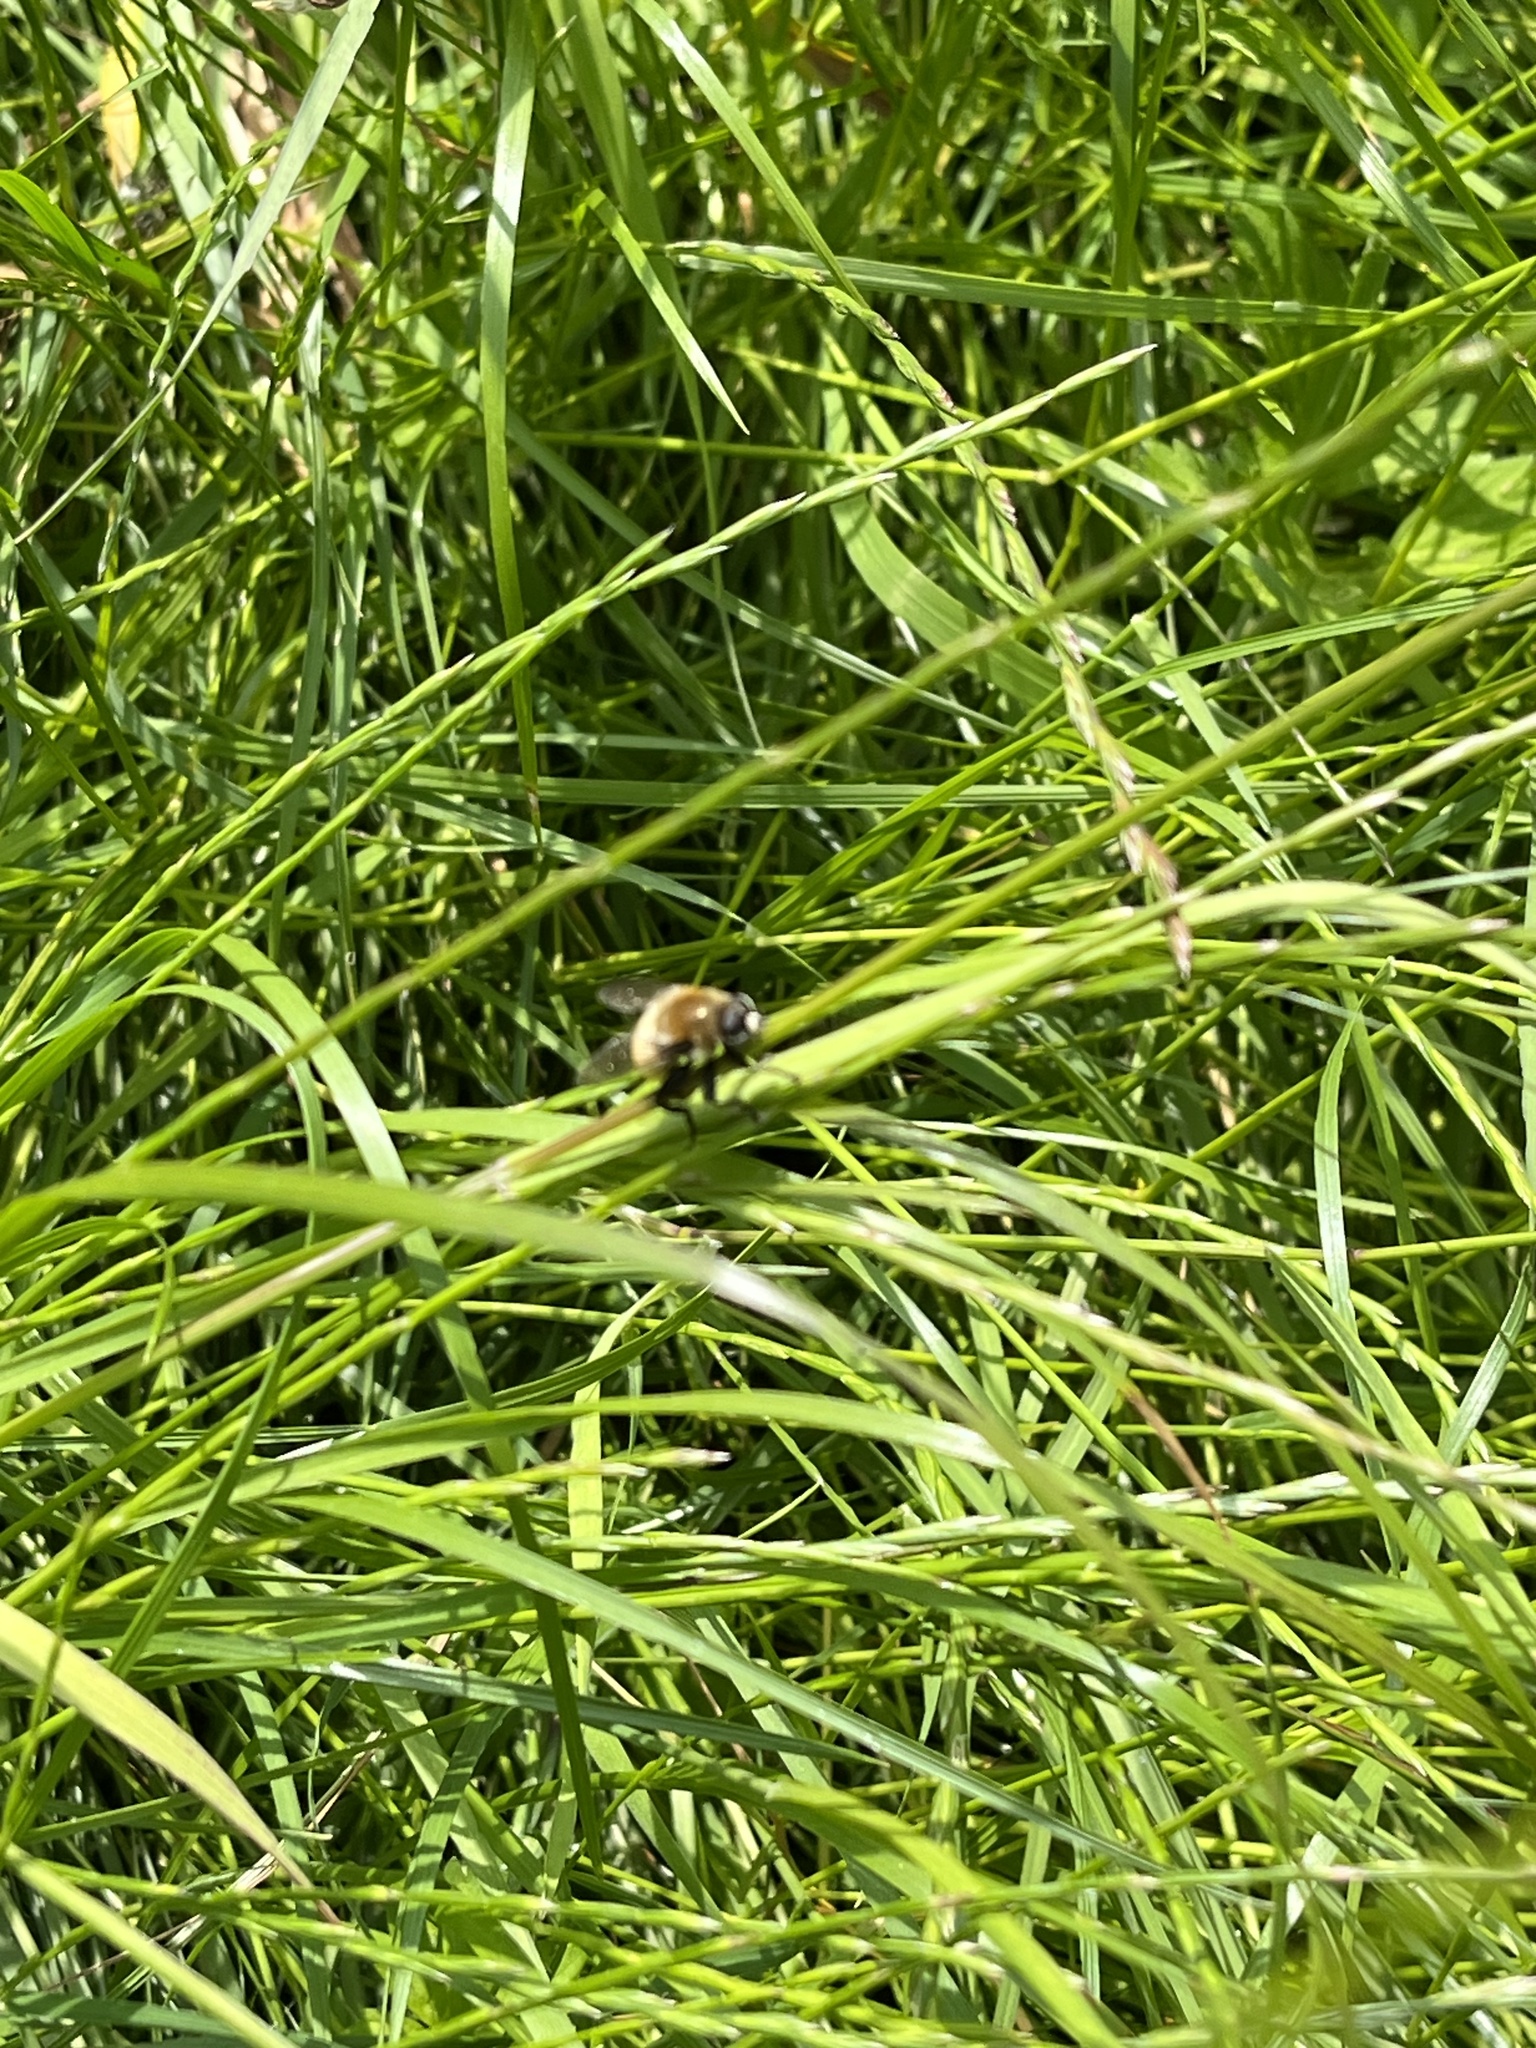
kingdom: Animalia
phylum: Arthropoda
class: Insecta
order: Diptera
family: Syrphidae
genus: Merodon
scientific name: Merodon equestris
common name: Greater bulb-fly
